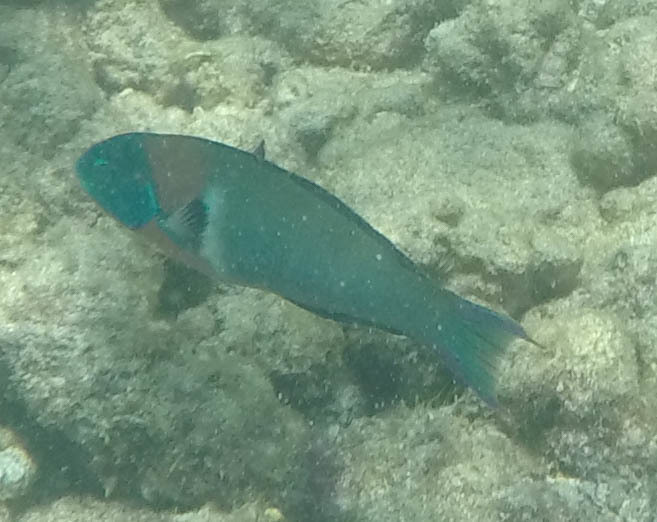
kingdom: Animalia
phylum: Chordata
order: Perciformes
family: Labridae
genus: Thalassoma
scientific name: Thalassoma duperrey
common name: Saddle wrasse
